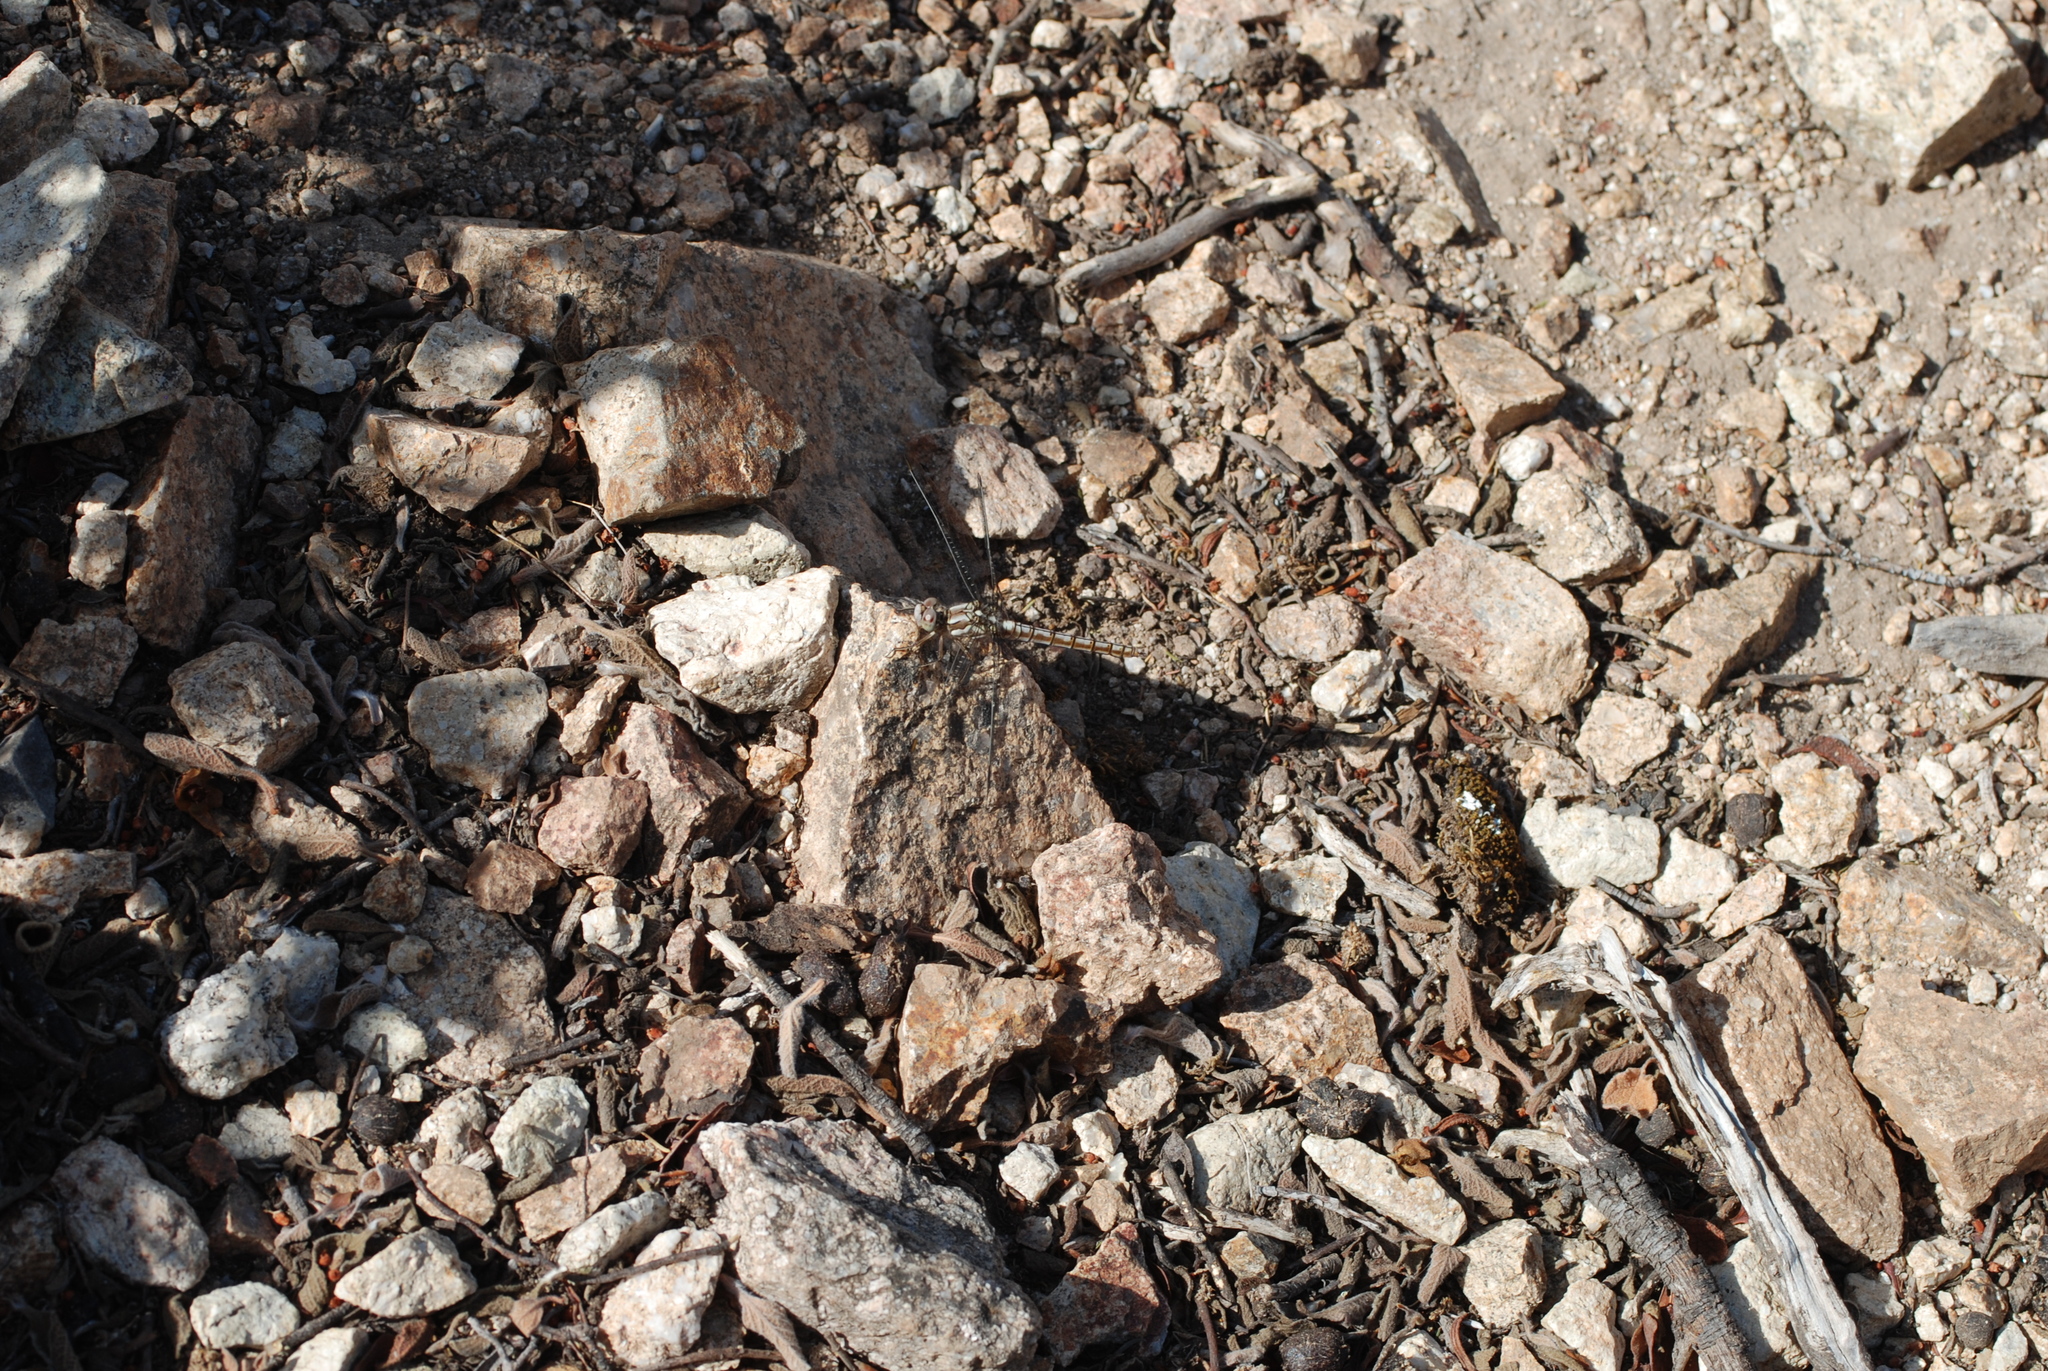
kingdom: Animalia
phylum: Arthropoda
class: Insecta
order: Odonata
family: Libellulidae
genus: Orthetrum
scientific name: Orthetrum brunneum
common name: Southern skimmer
